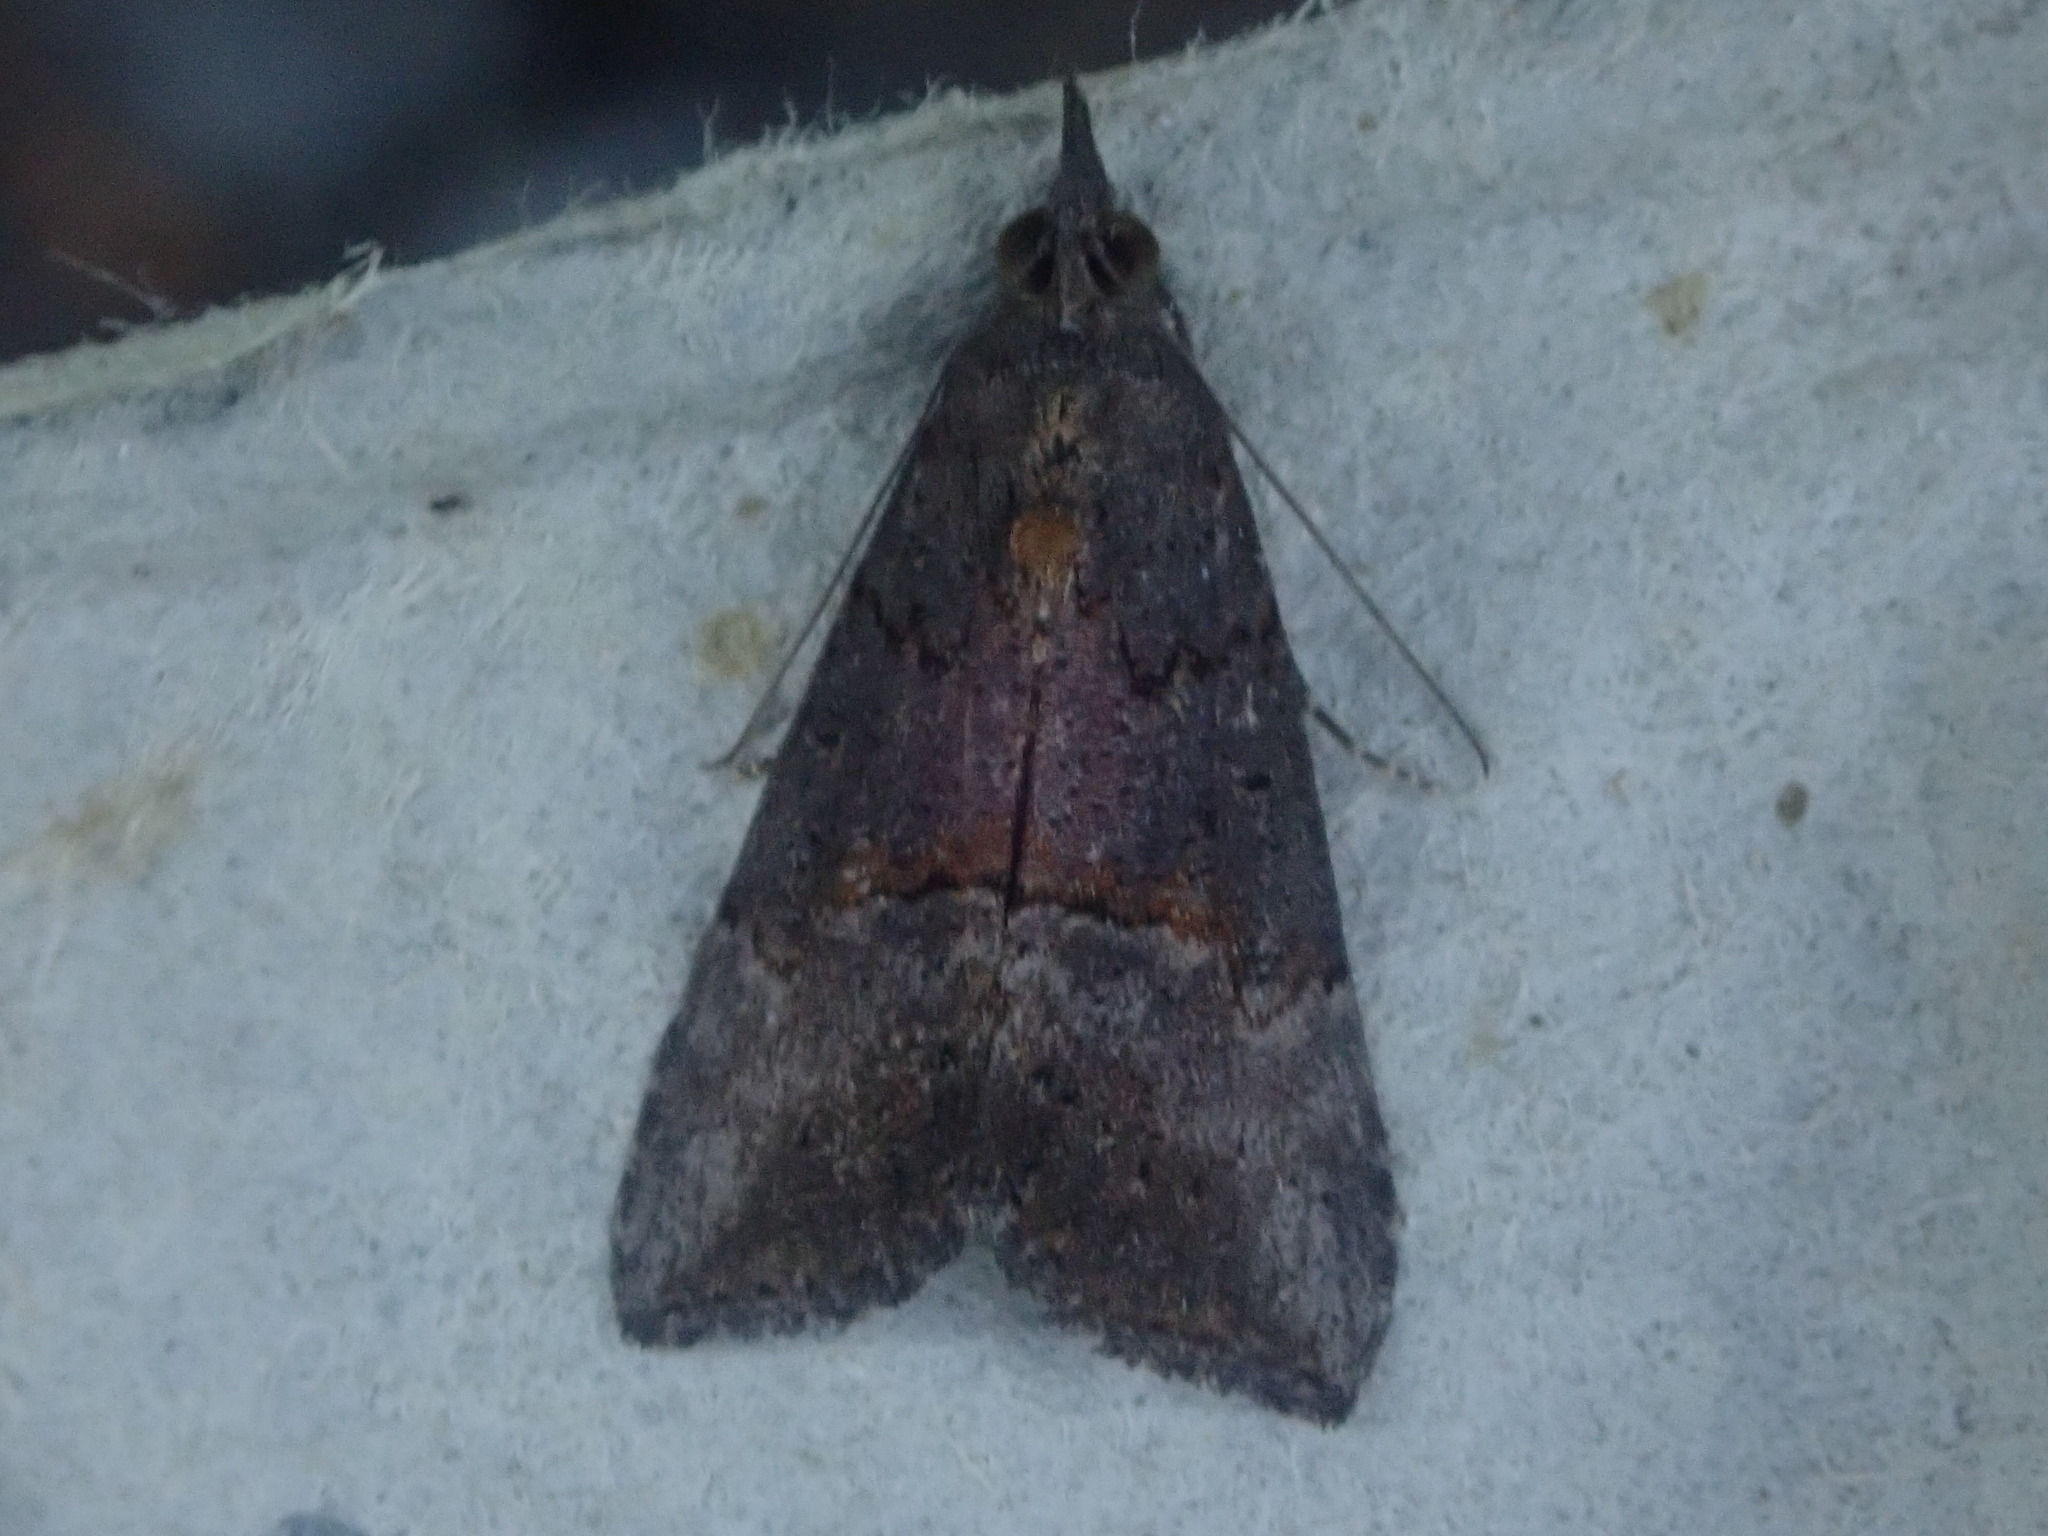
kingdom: Animalia
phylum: Arthropoda
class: Insecta
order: Lepidoptera
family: Erebidae
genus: Hypena
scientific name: Hypena scabra
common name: Green cloverworm
